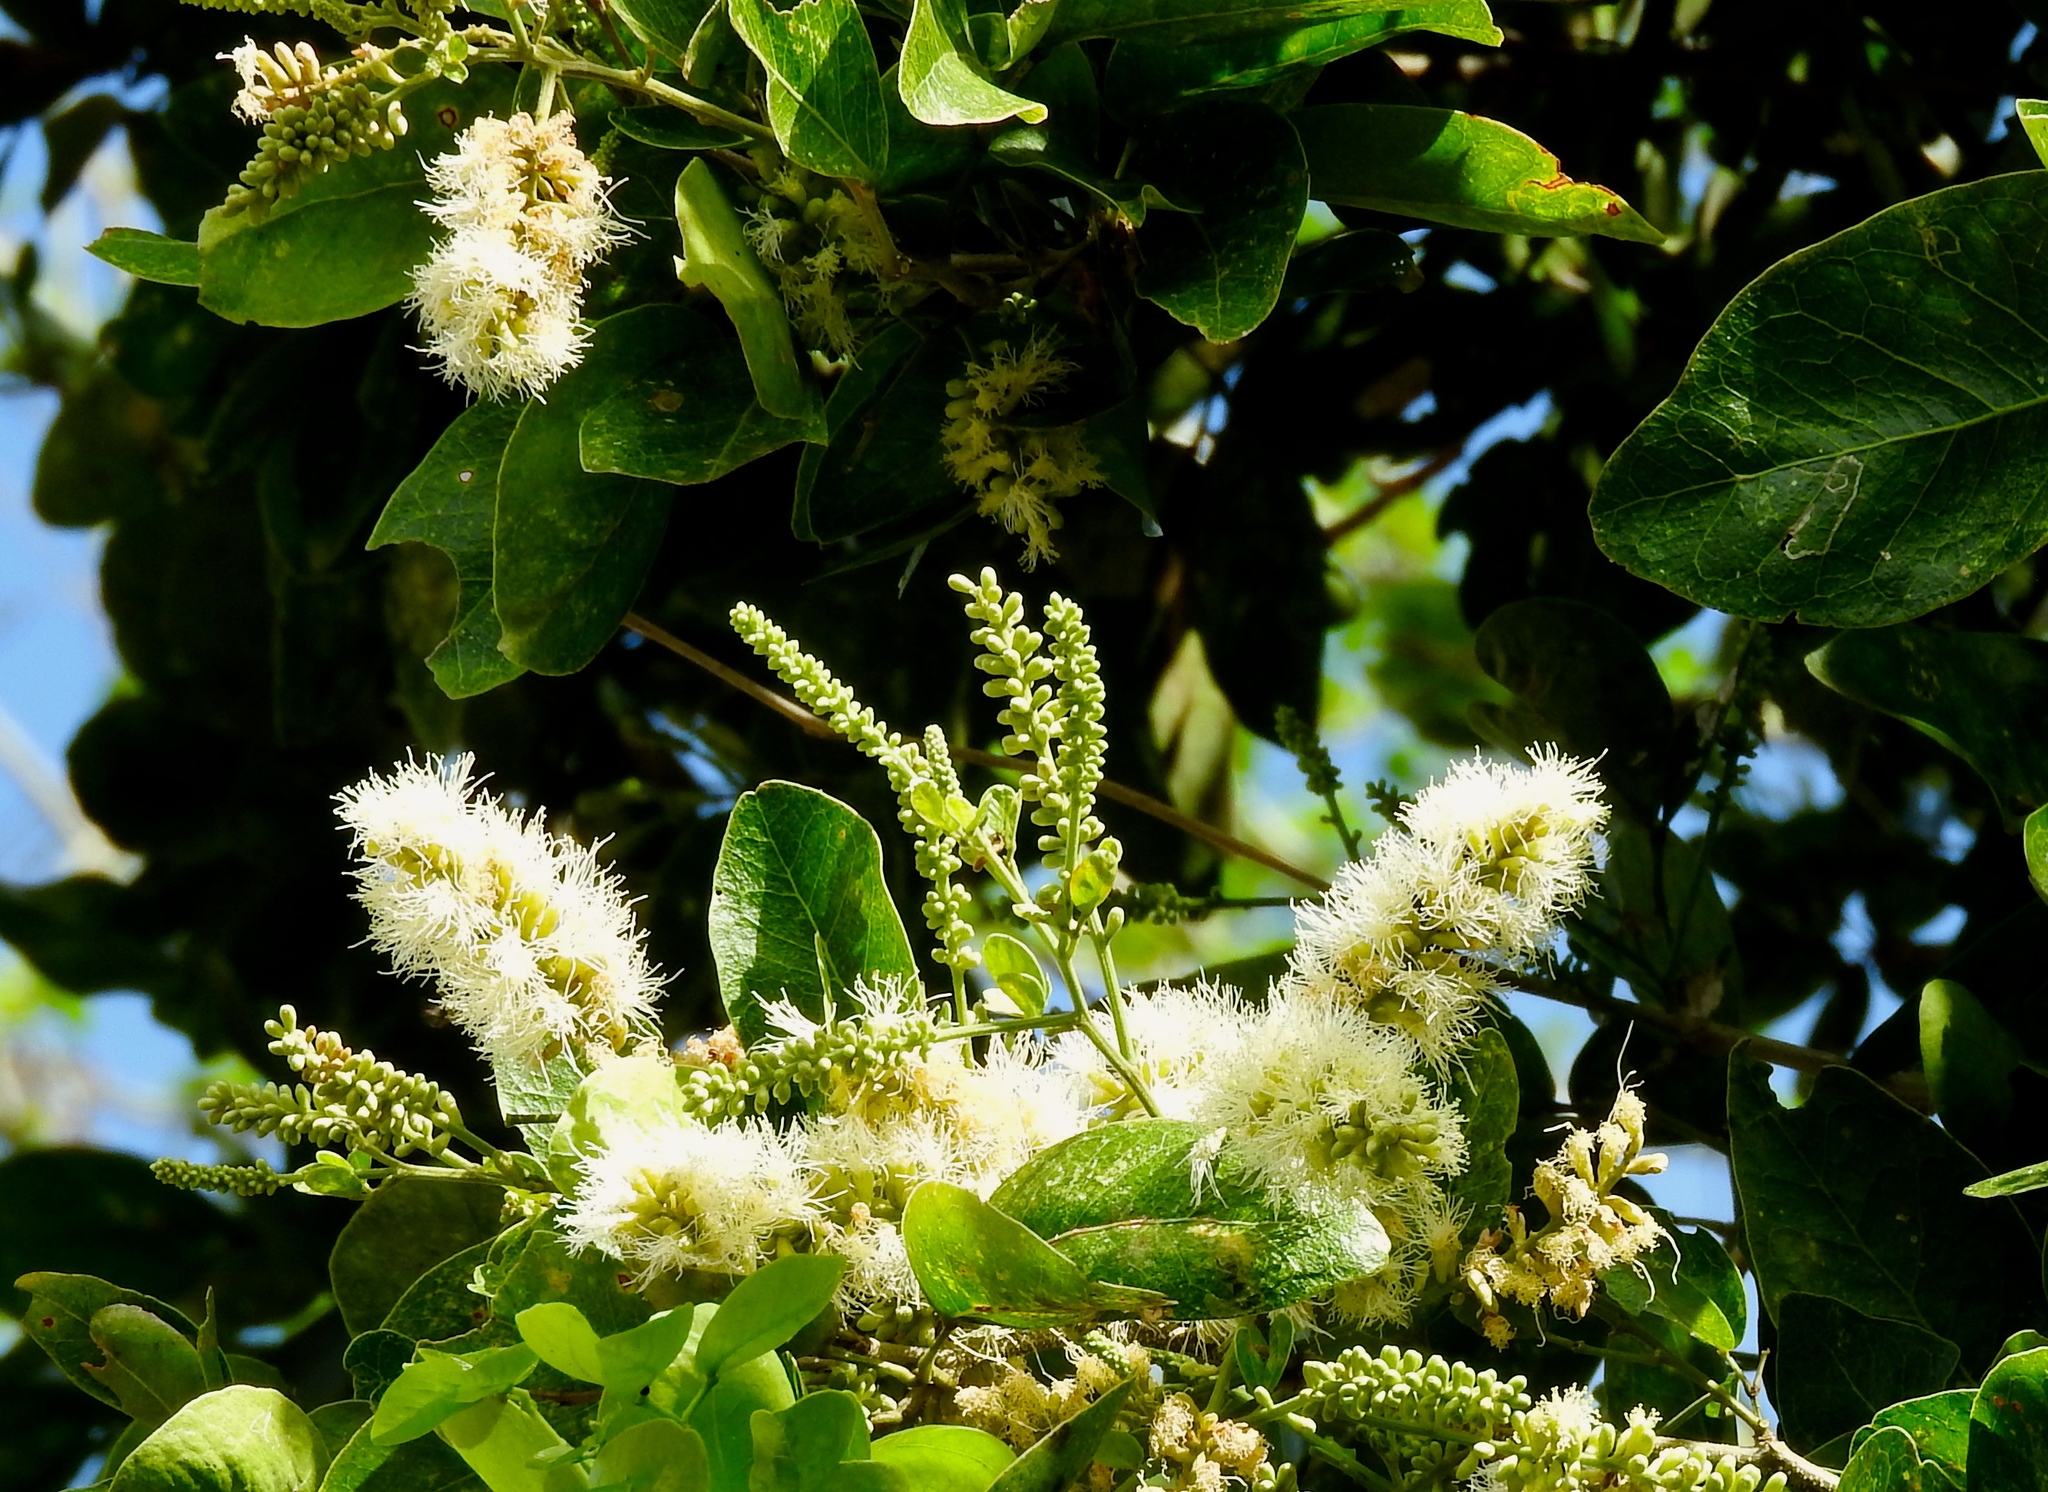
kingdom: Plantae
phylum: Tracheophyta
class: Magnoliopsida
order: Fabales
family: Fabaceae
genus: Pithecellobium
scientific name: Pithecellobium lanceolatum
